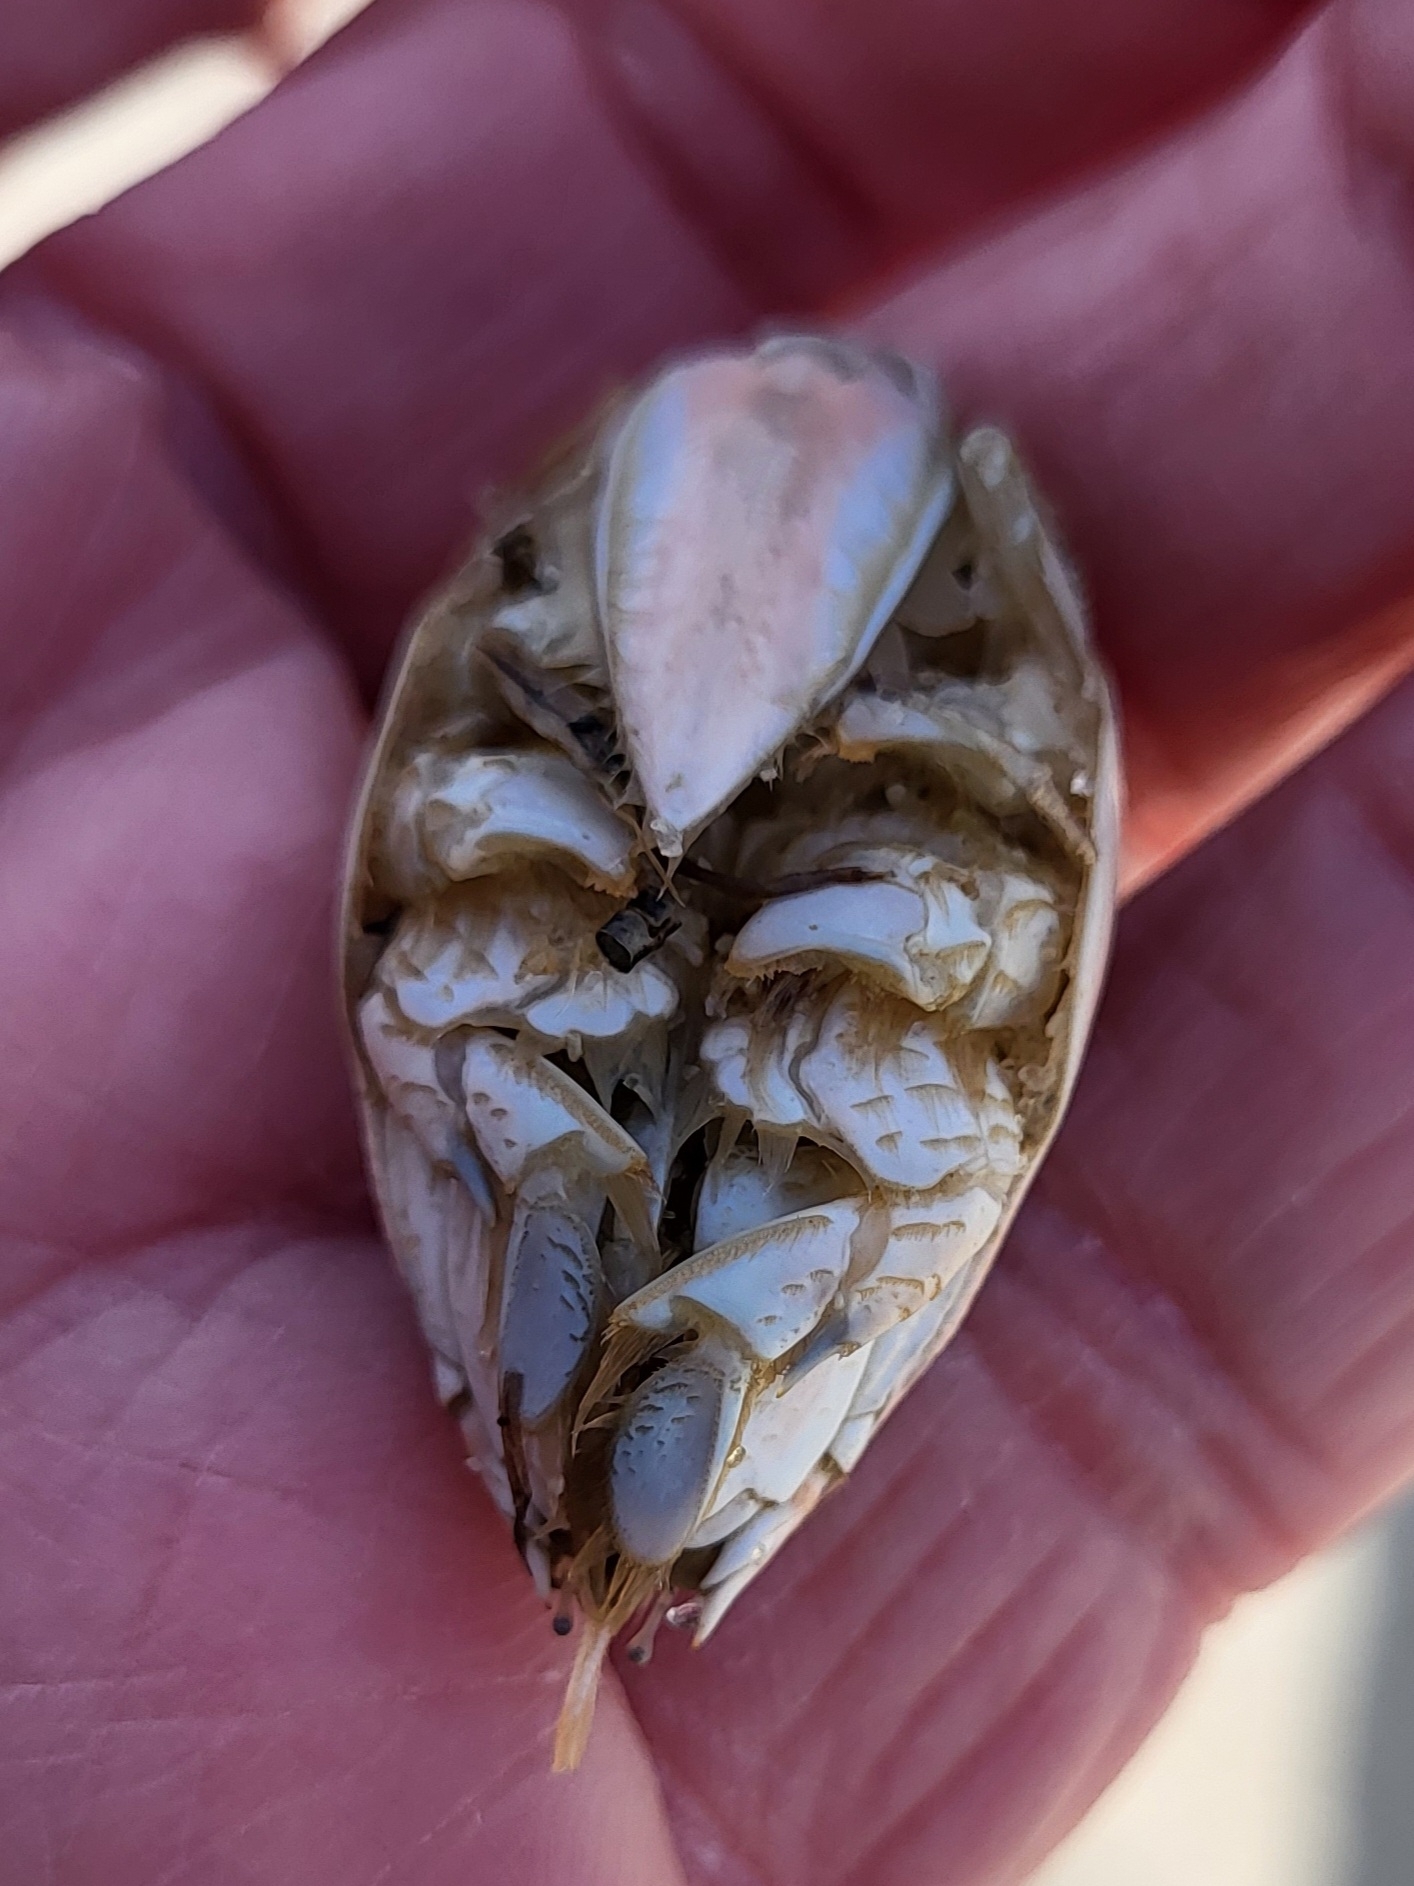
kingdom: Animalia
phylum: Arthropoda
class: Malacostraca
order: Decapoda
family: Hippidae
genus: Emerita
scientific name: Emerita talpoida
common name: Atlantic sand crab
